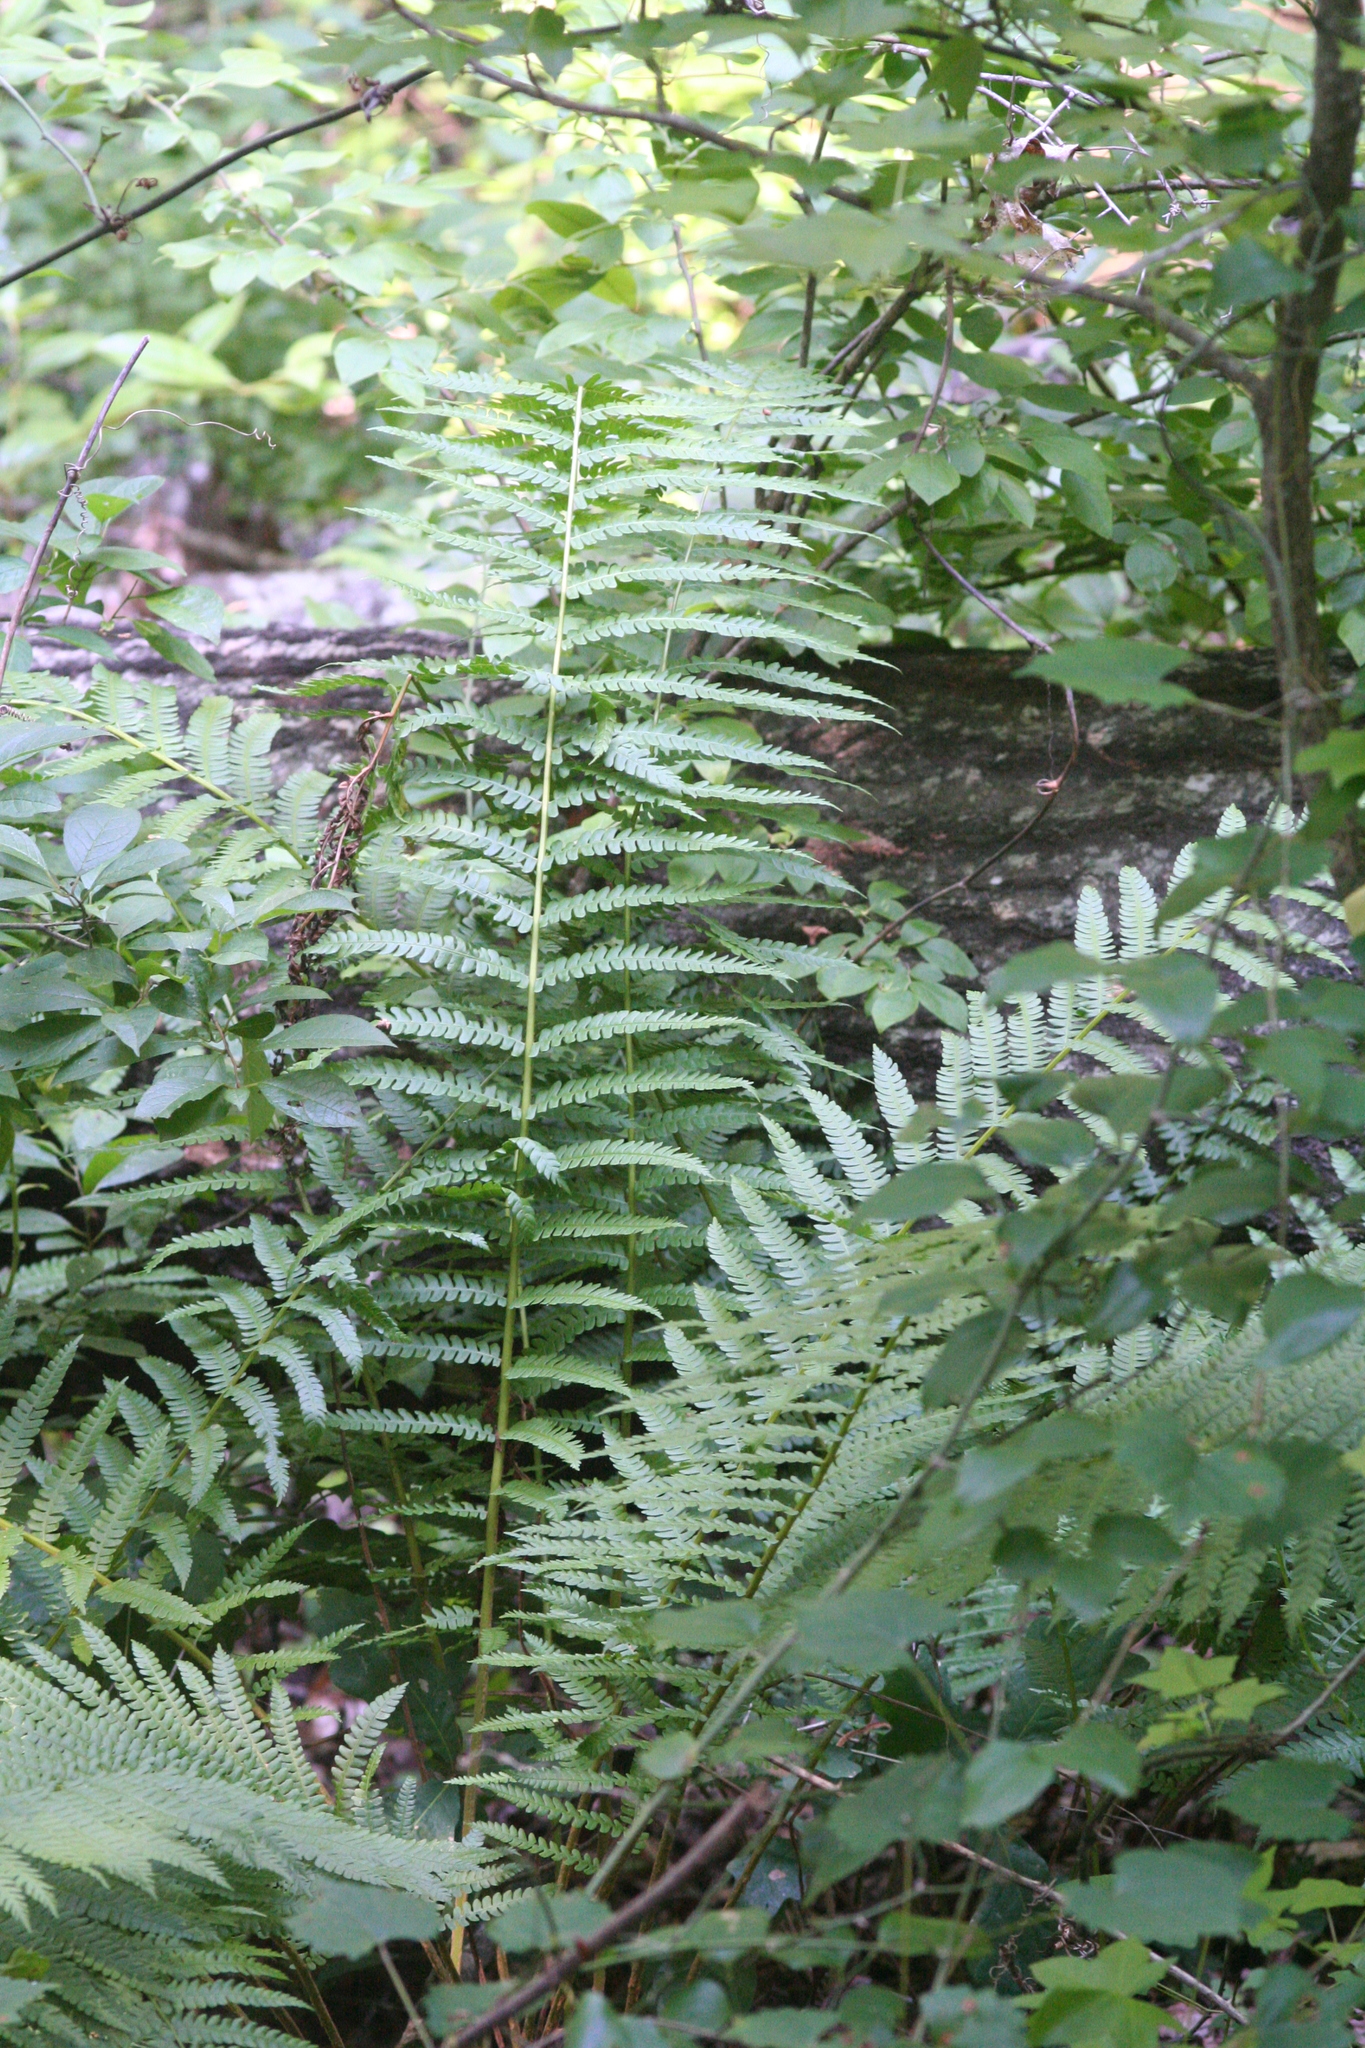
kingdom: Plantae
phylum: Tracheophyta
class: Polypodiopsida
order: Osmundales
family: Osmundaceae
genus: Osmundastrum
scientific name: Osmundastrum cinnamomeum
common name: Cinnamon fern
